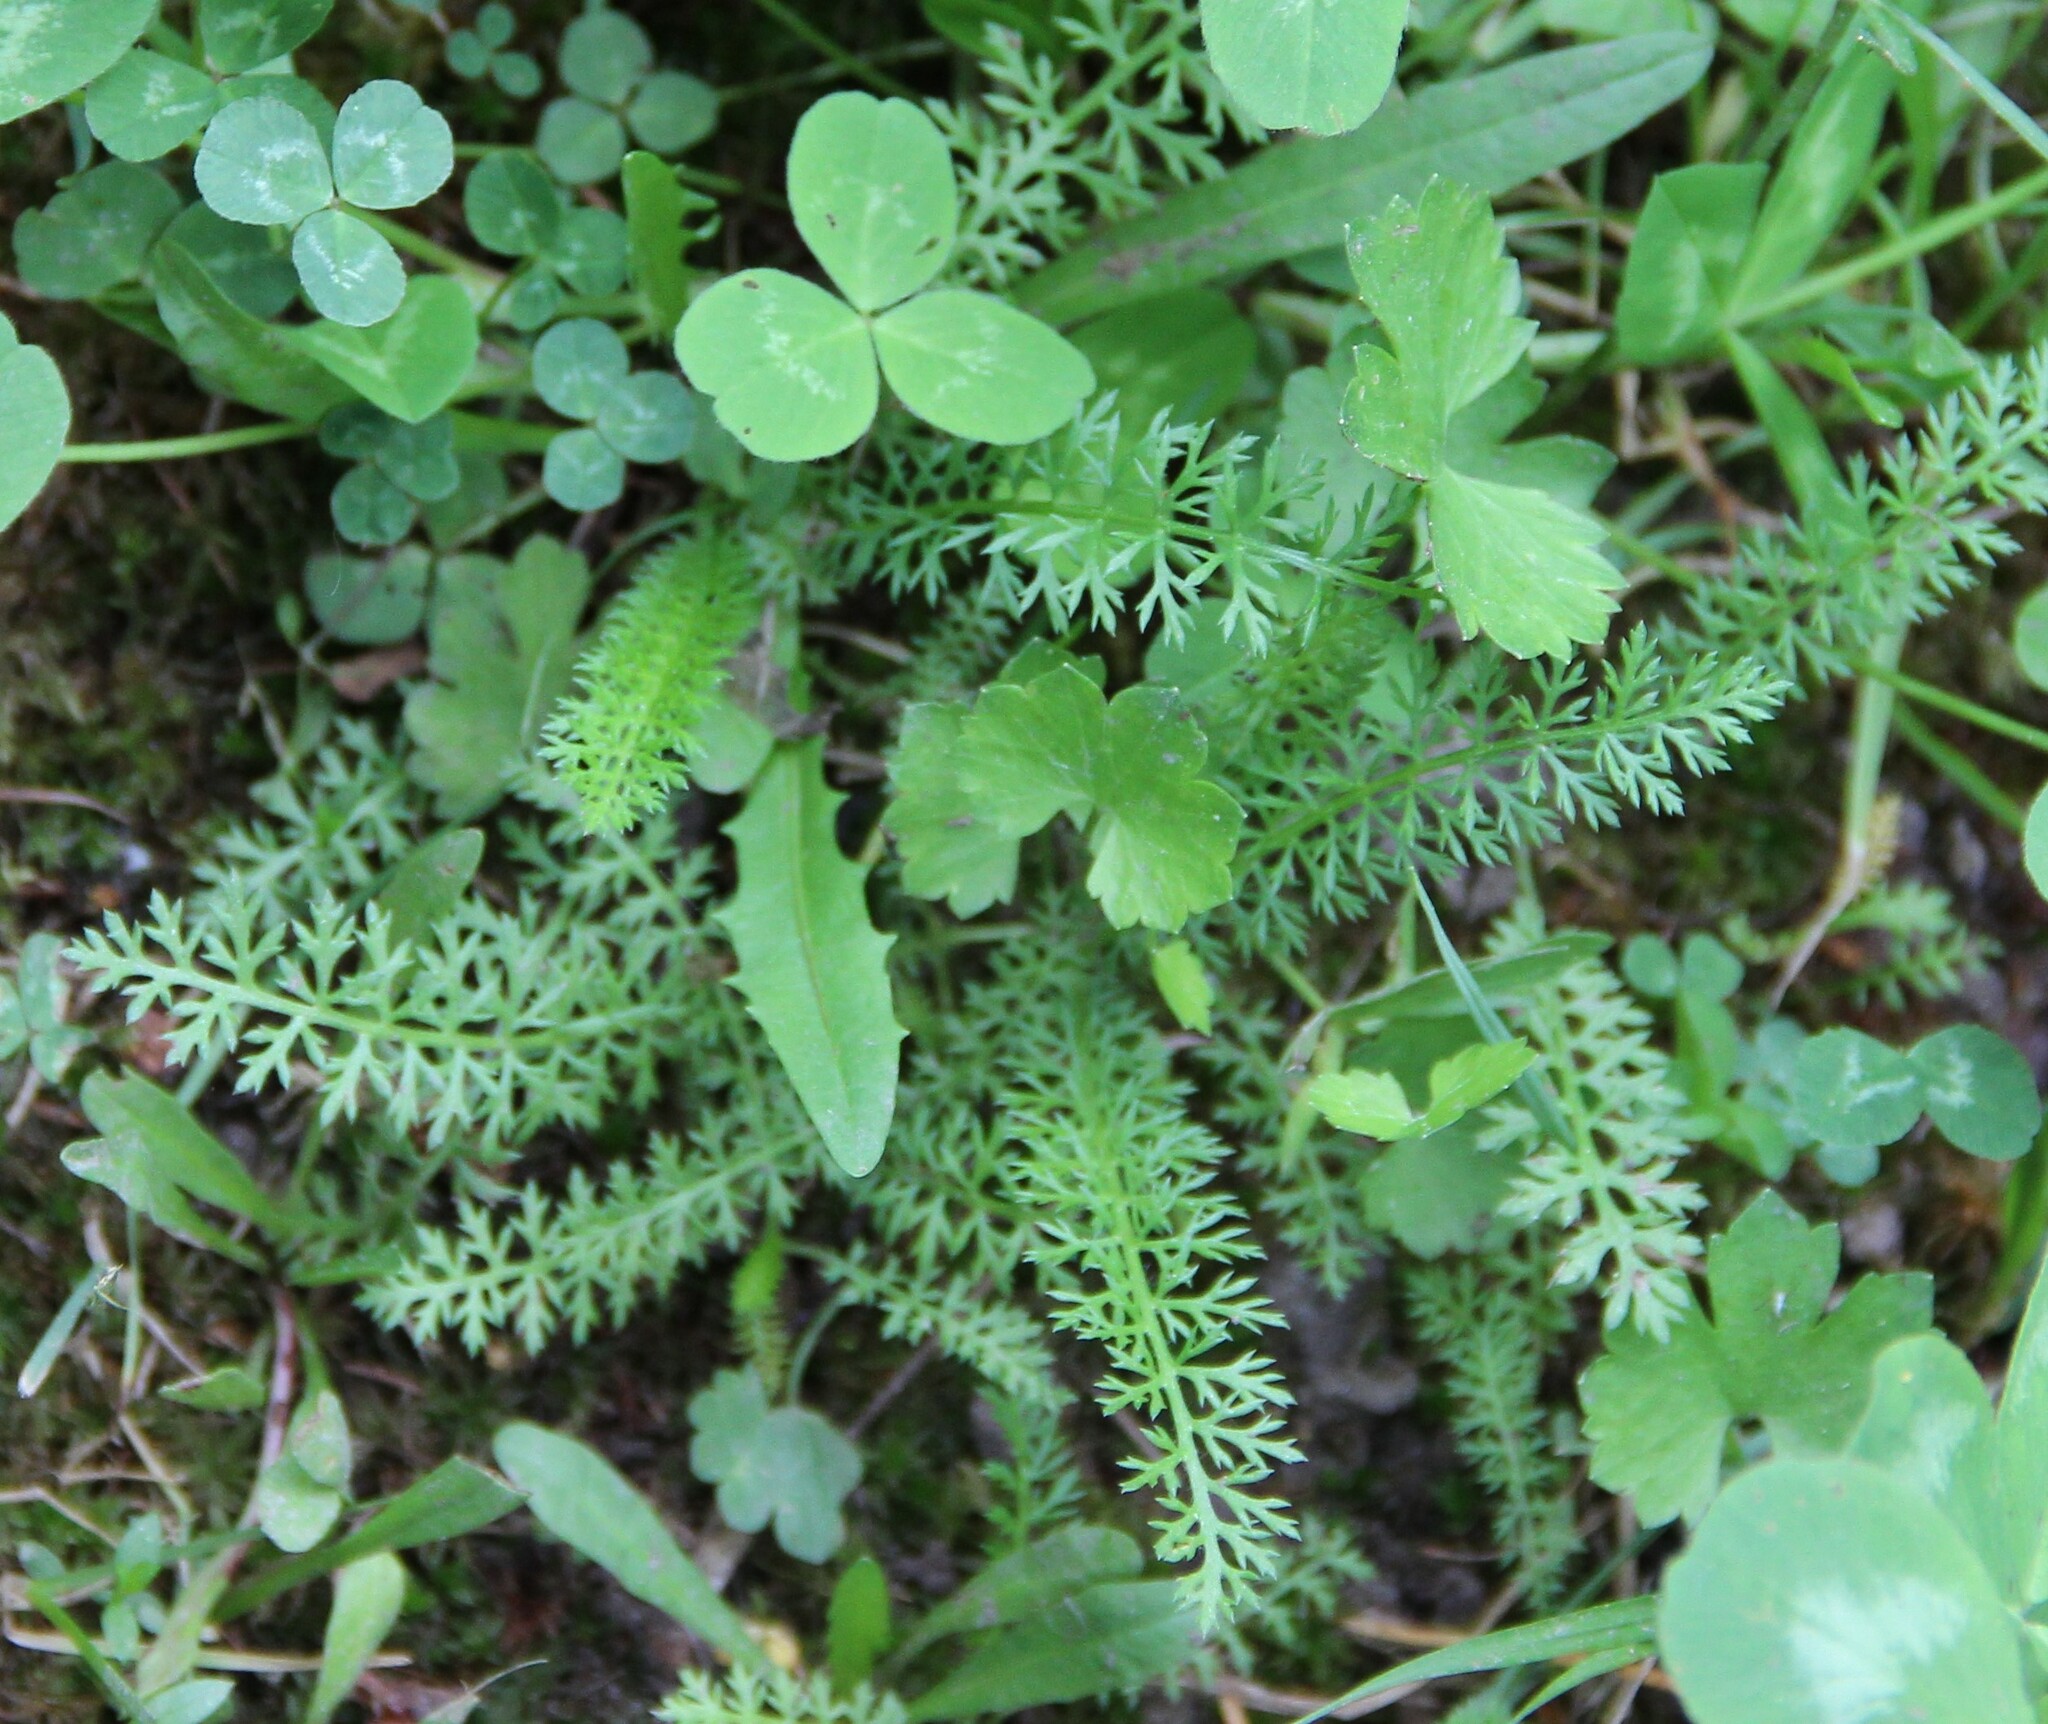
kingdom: Plantae
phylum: Tracheophyta
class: Magnoliopsida
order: Asterales
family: Asteraceae
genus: Achillea
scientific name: Achillea millefolium
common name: Yarrow
